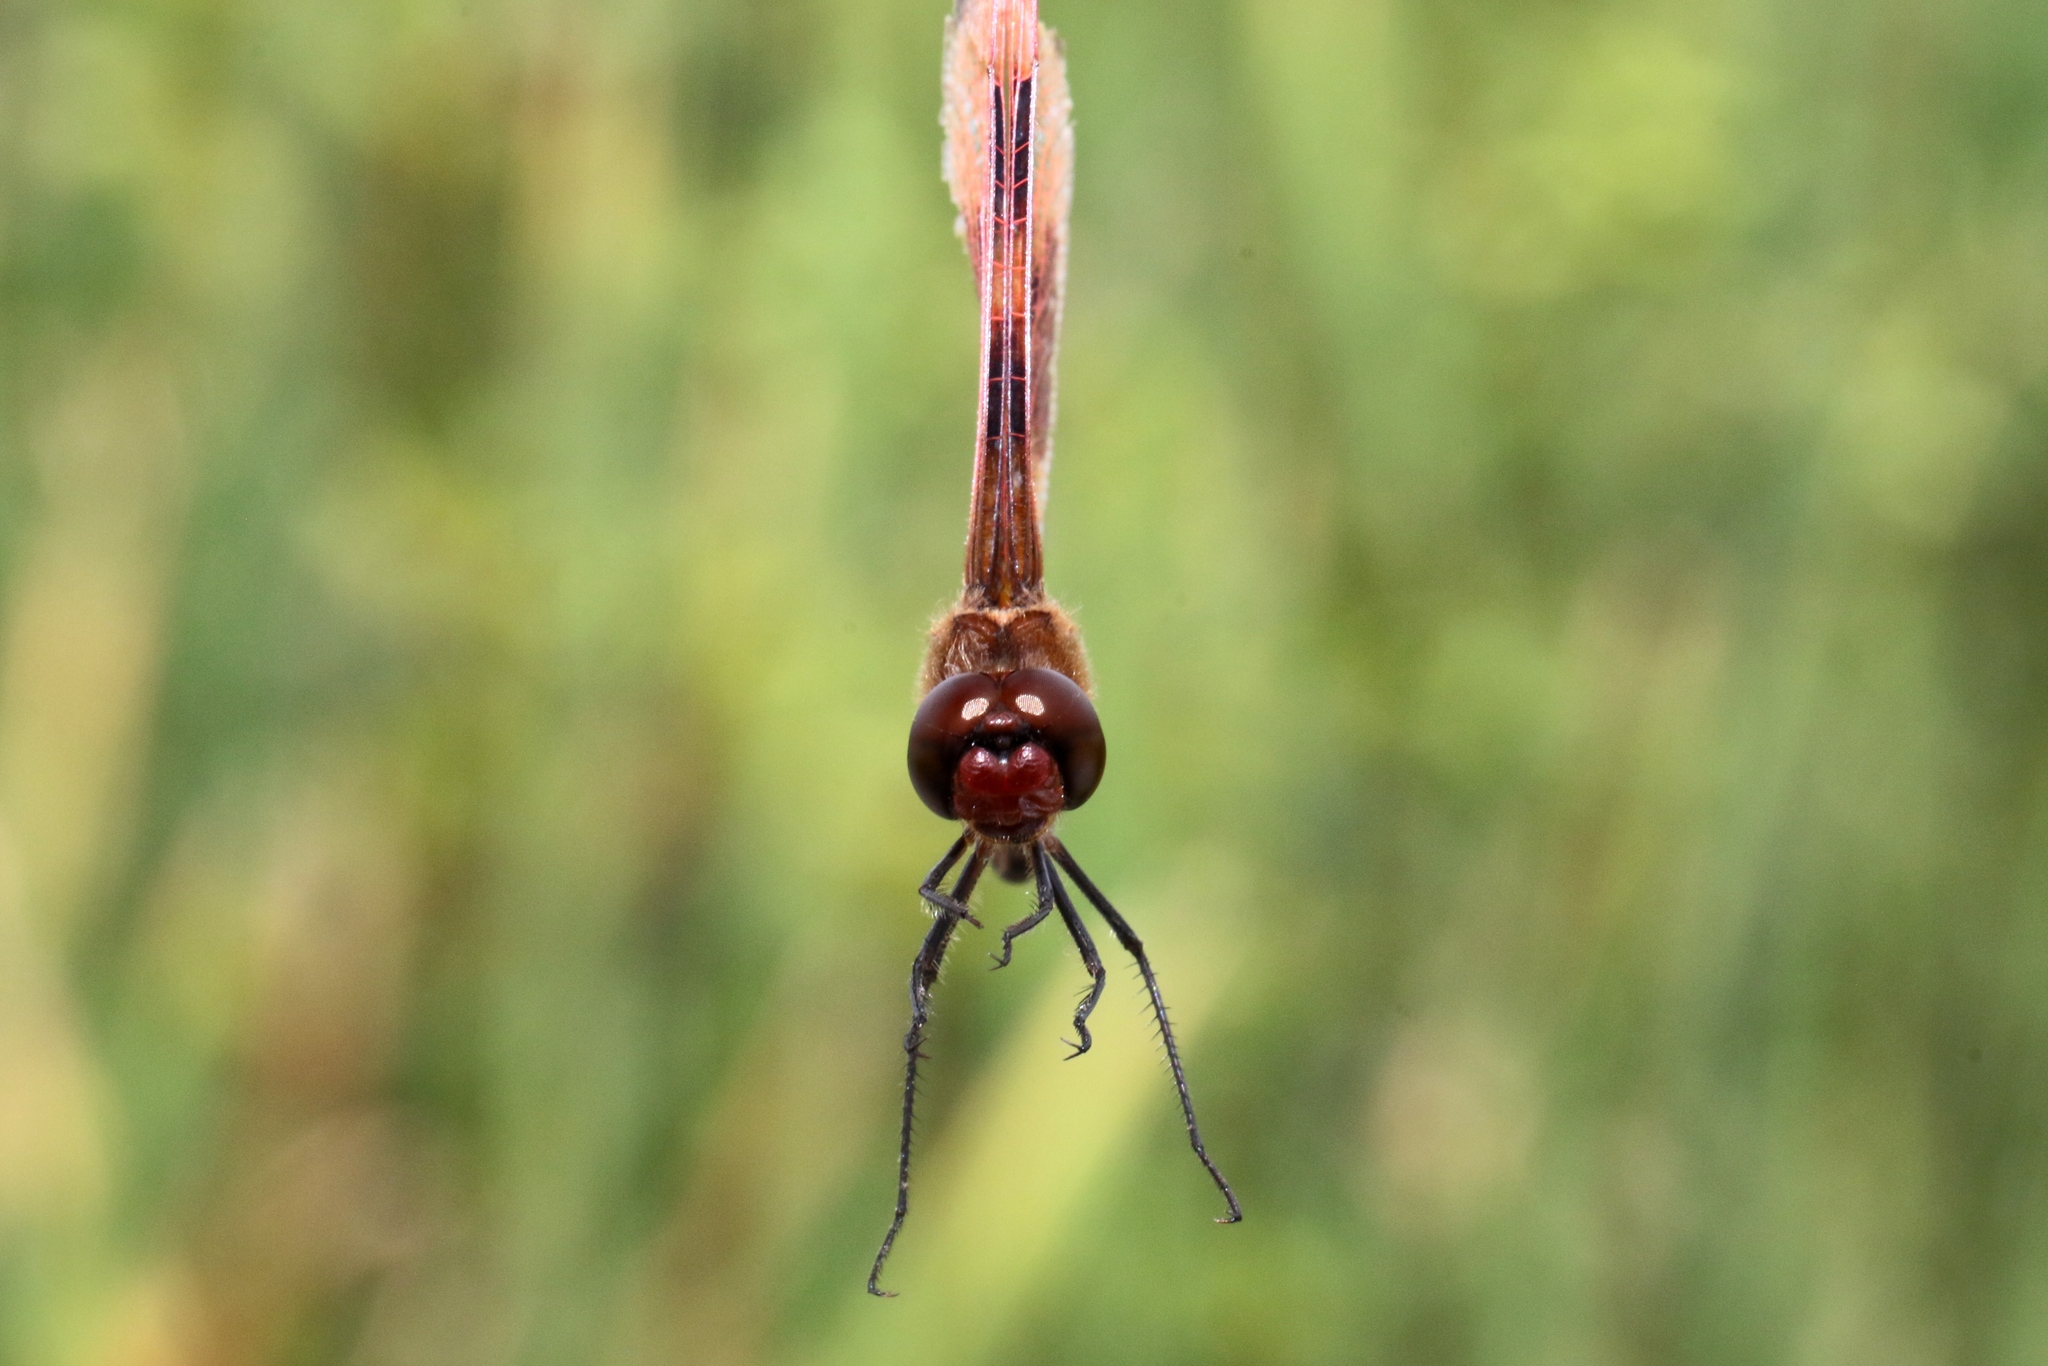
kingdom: Animalia
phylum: Arthropoda
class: Insecta
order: Odonata
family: Libellulidae
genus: Celithemis
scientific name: Celithemis eponina
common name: Halloween pennant
